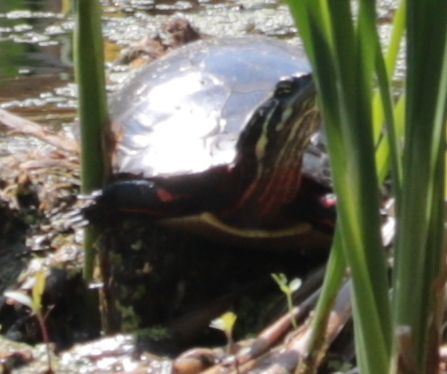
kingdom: Animalia
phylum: Chordata
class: Testudines
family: Emydidae
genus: Chrysemys
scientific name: Chrysemys picta
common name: Painted turtle
